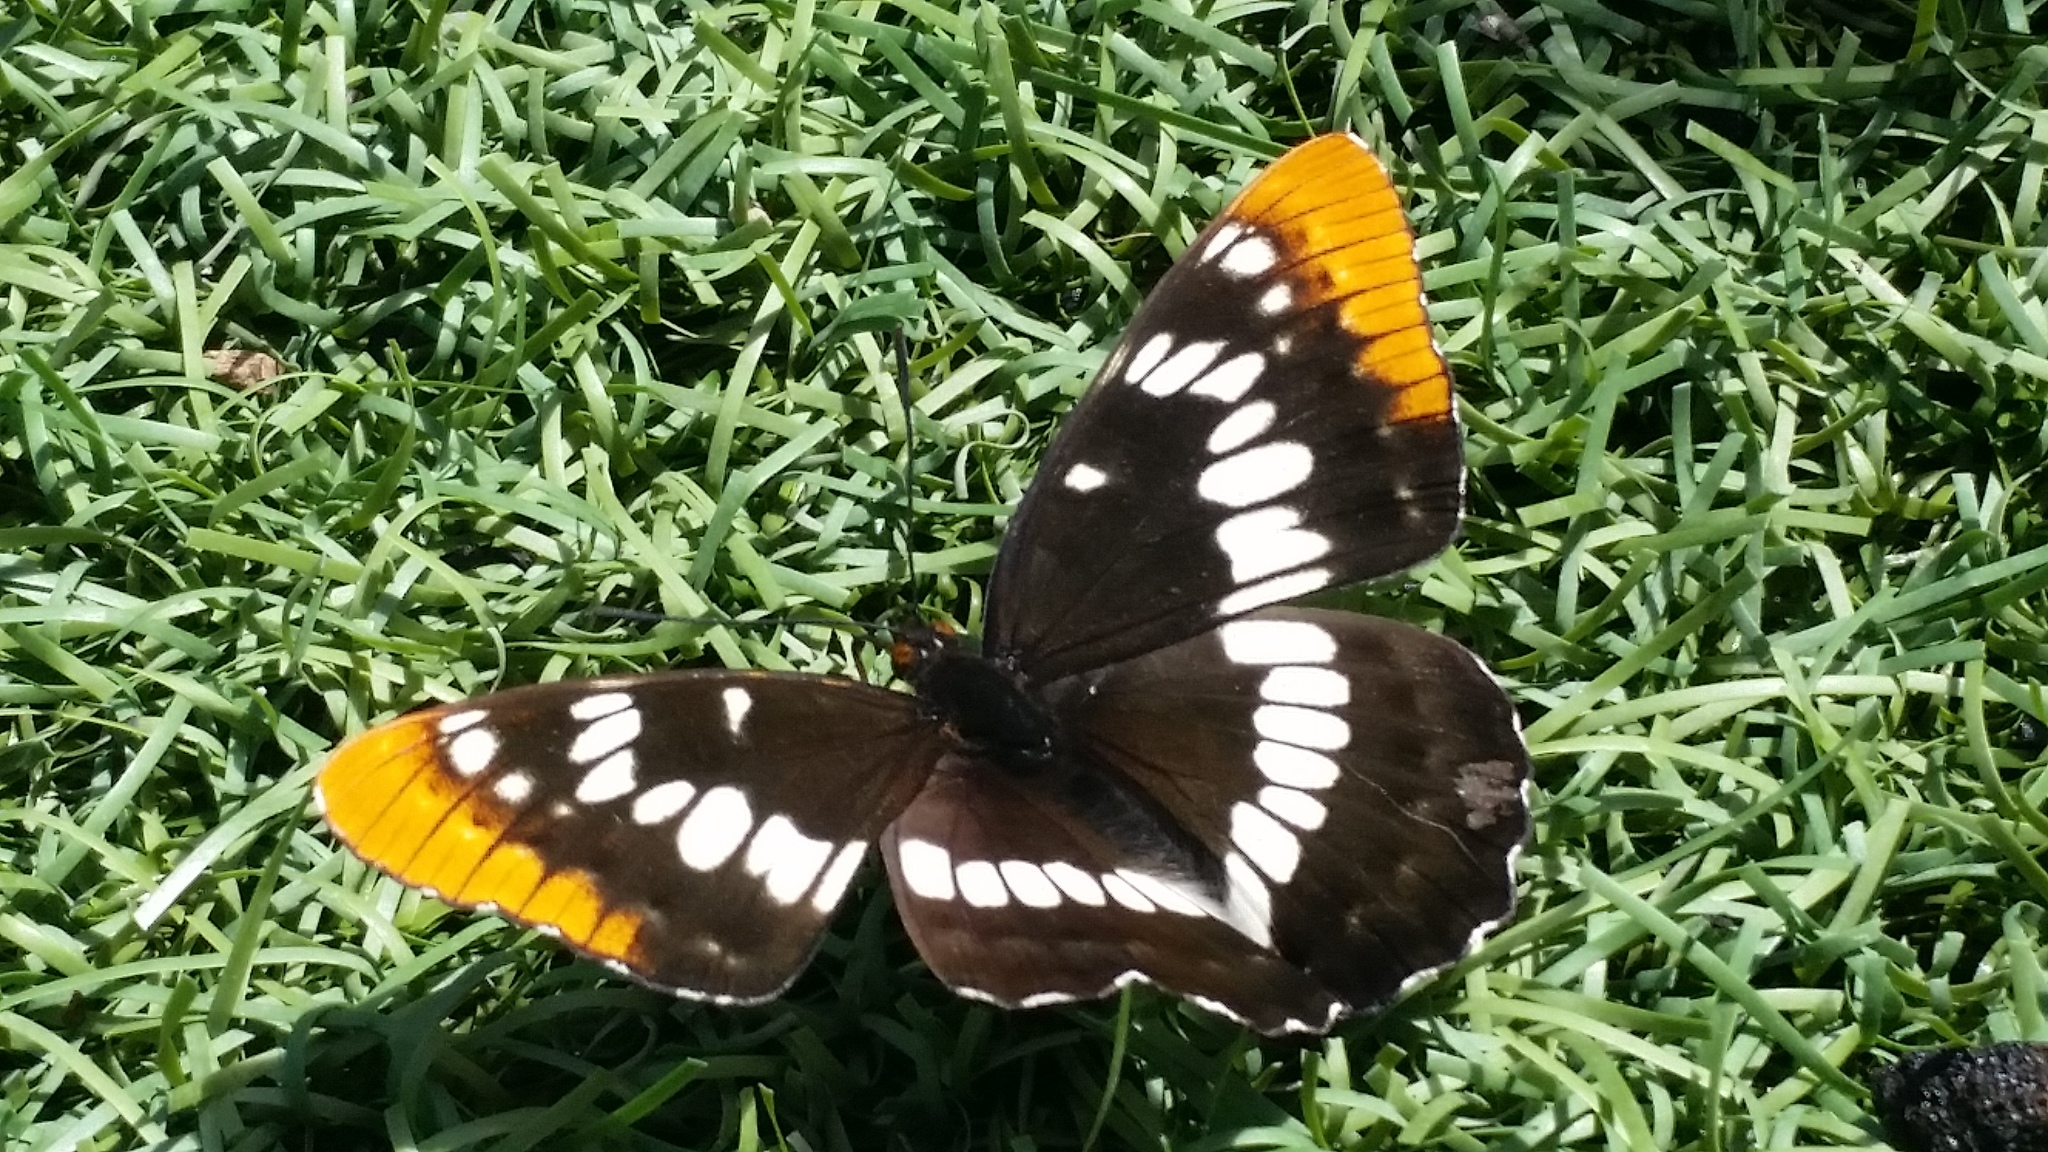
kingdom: Animalia
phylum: Arthropoda
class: Insecta
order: Lepidoptera
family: Nymphalidae
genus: Limenitis
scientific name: Limenitis lorquini
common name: Lorquin's admiral
